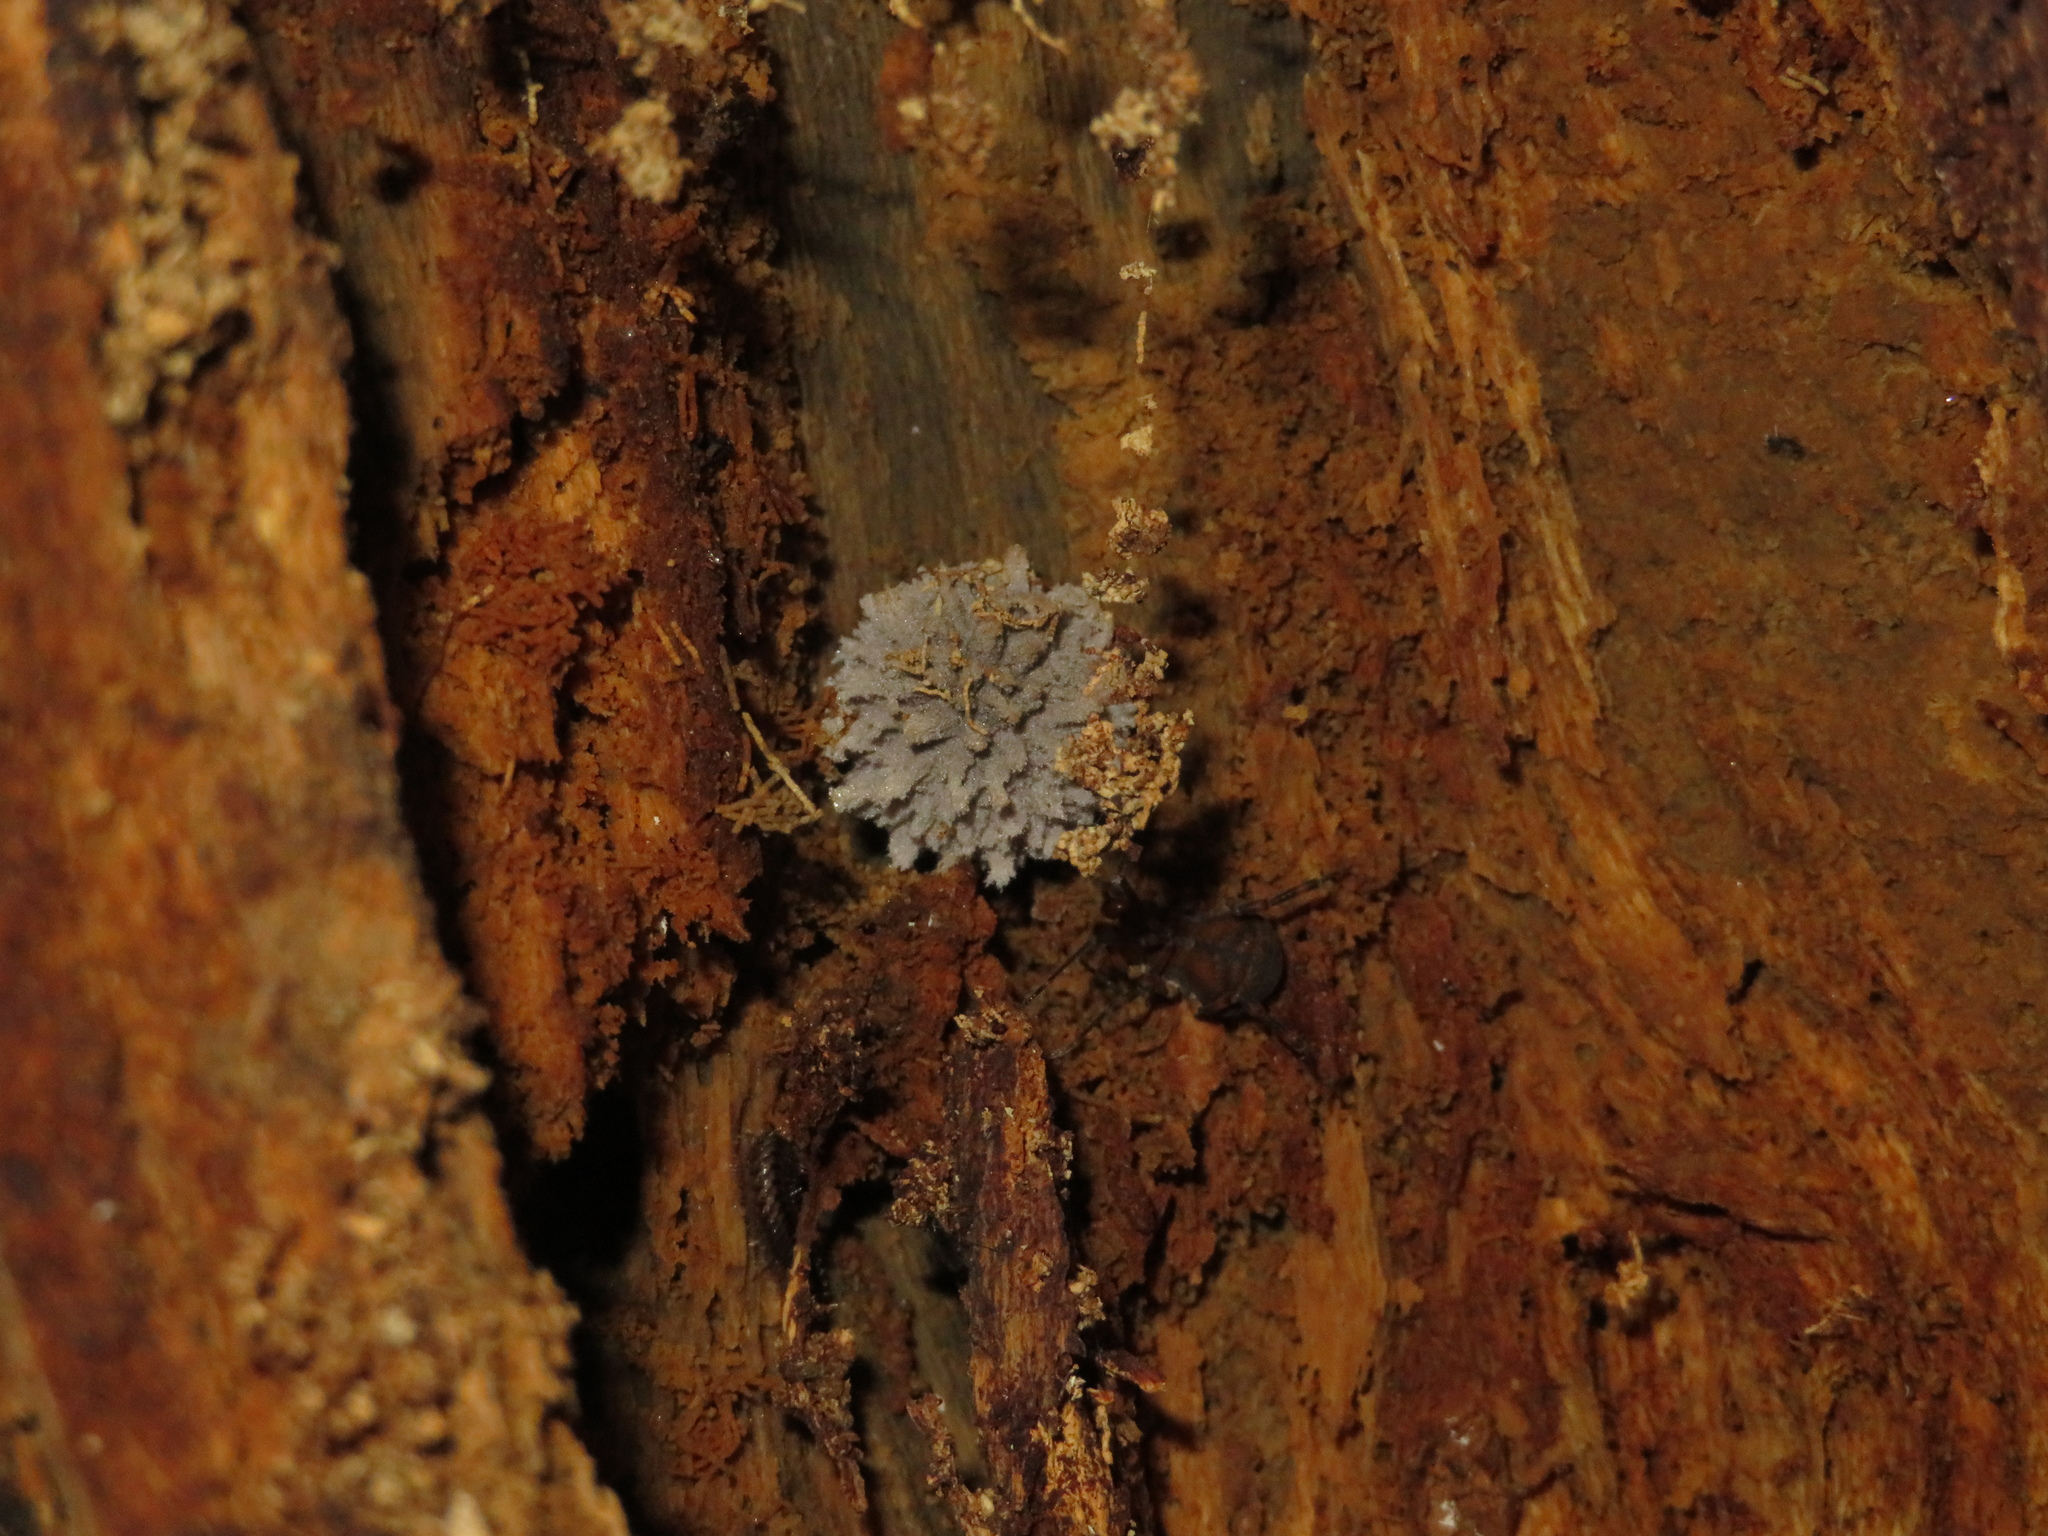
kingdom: Fungi
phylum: Basidiomycota
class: Agaricomycetes
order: Agaricales
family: Psathyrellaceae
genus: Coprinopsis
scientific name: Coprinopsis laanii
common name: Dotty inkcap
